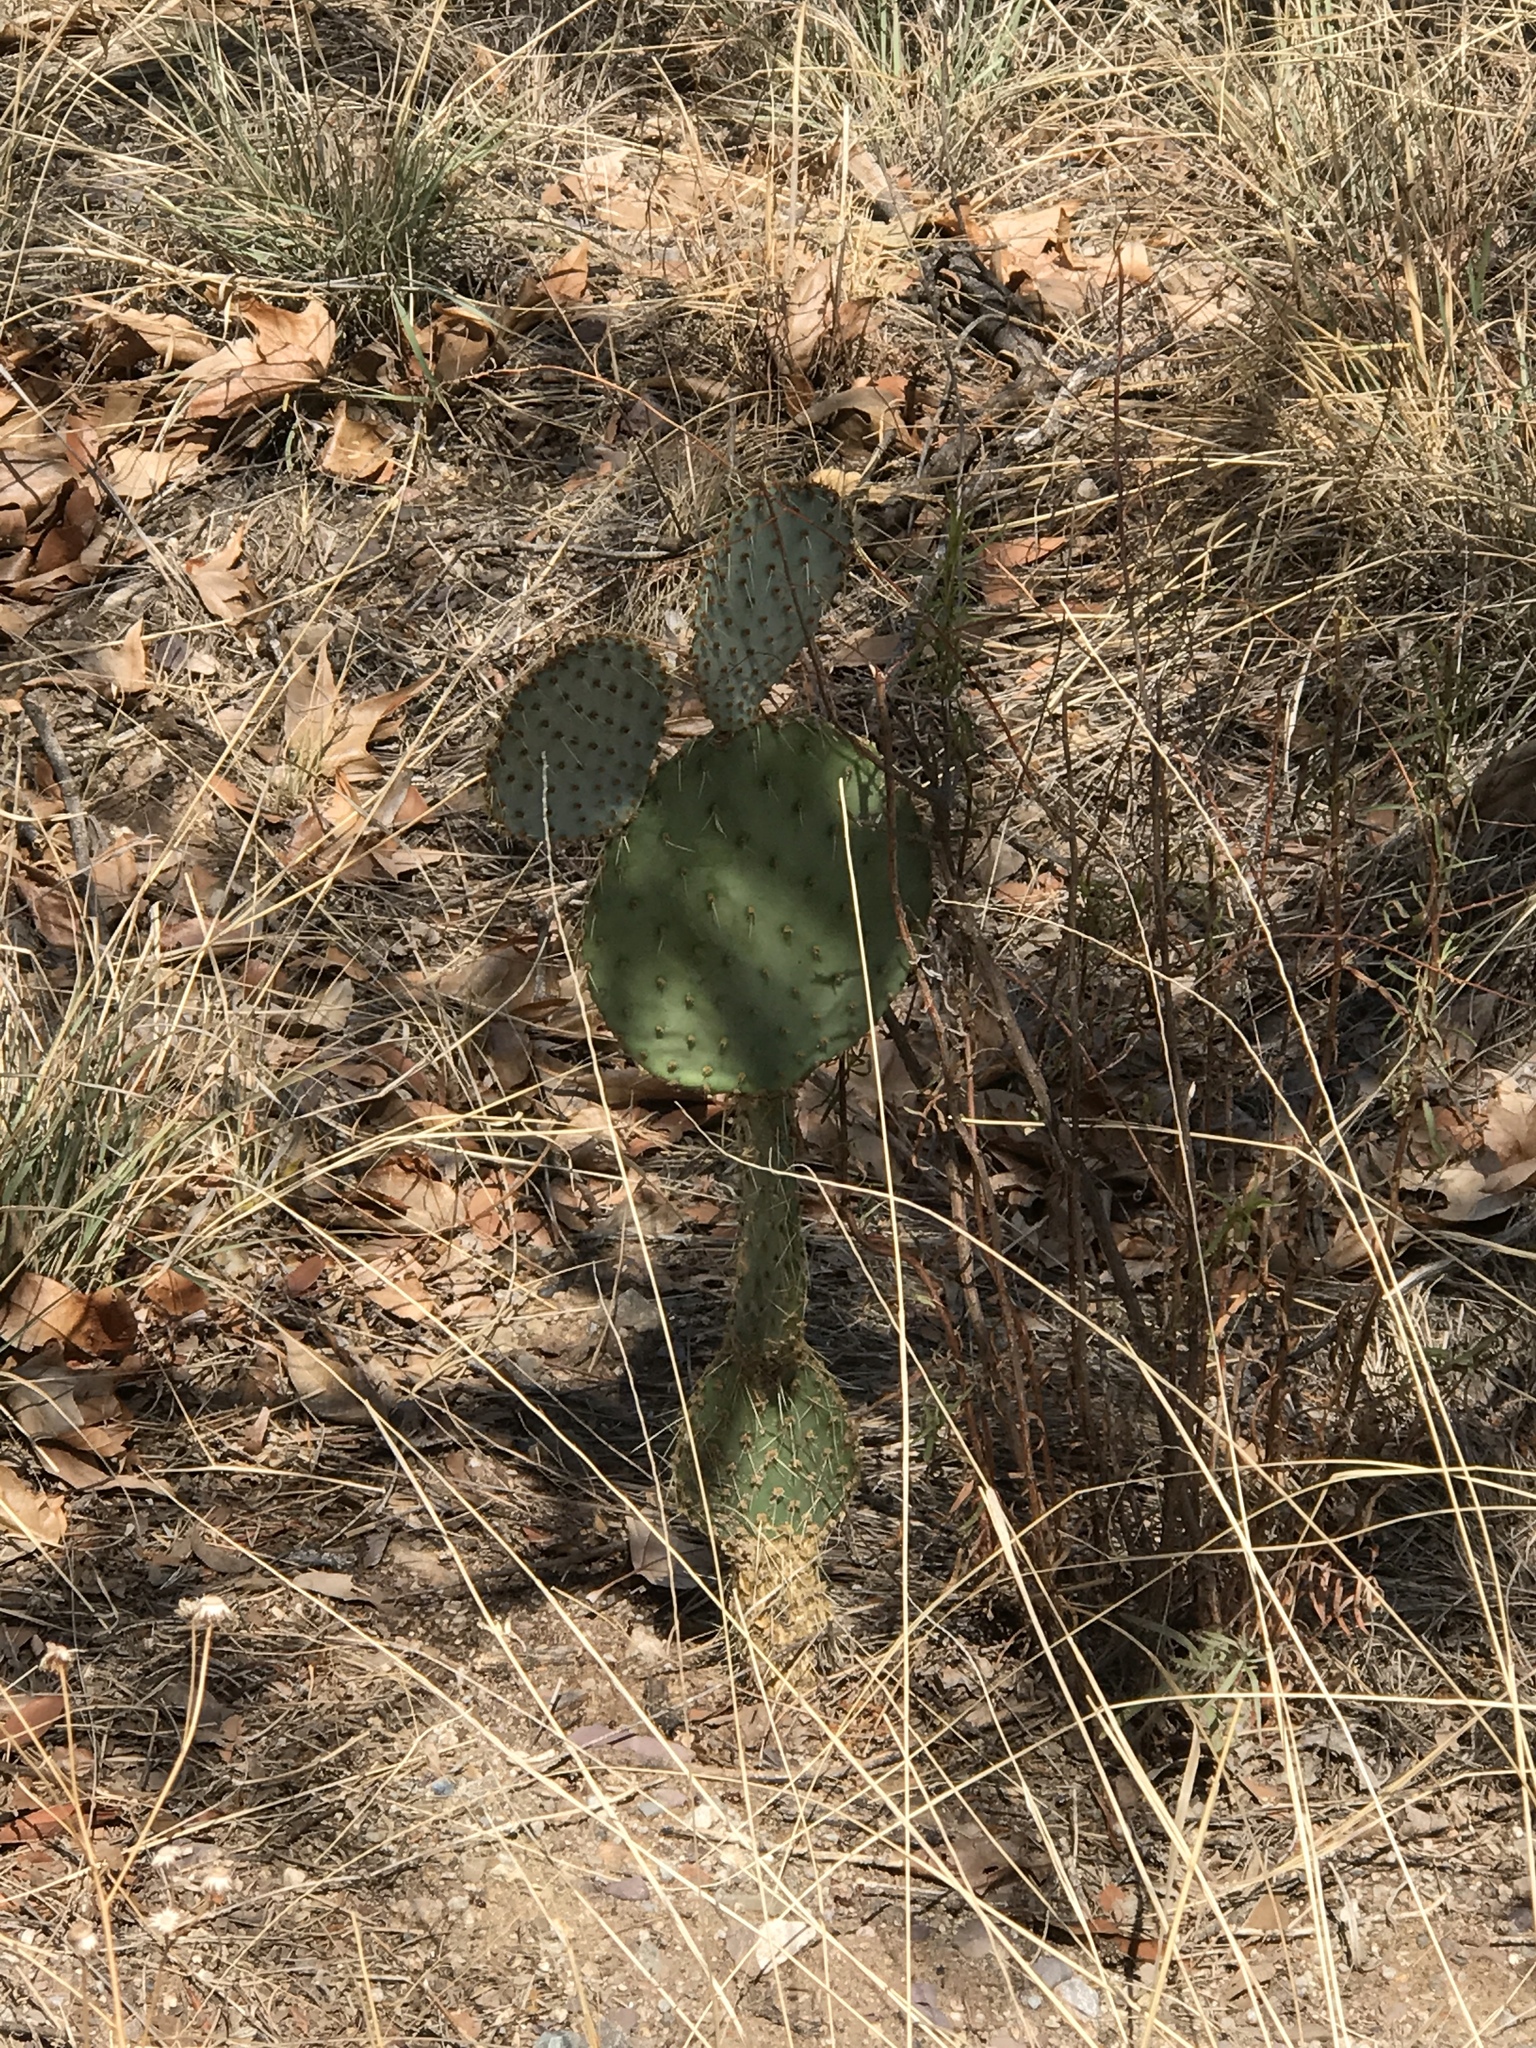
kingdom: Plantae
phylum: Tracheophyta
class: Magnoliopsida
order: Caryophyllales
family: Cactaceae
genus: Opuntia
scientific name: Opuntia chlorotica
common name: Dollar-joint prickly-pear
